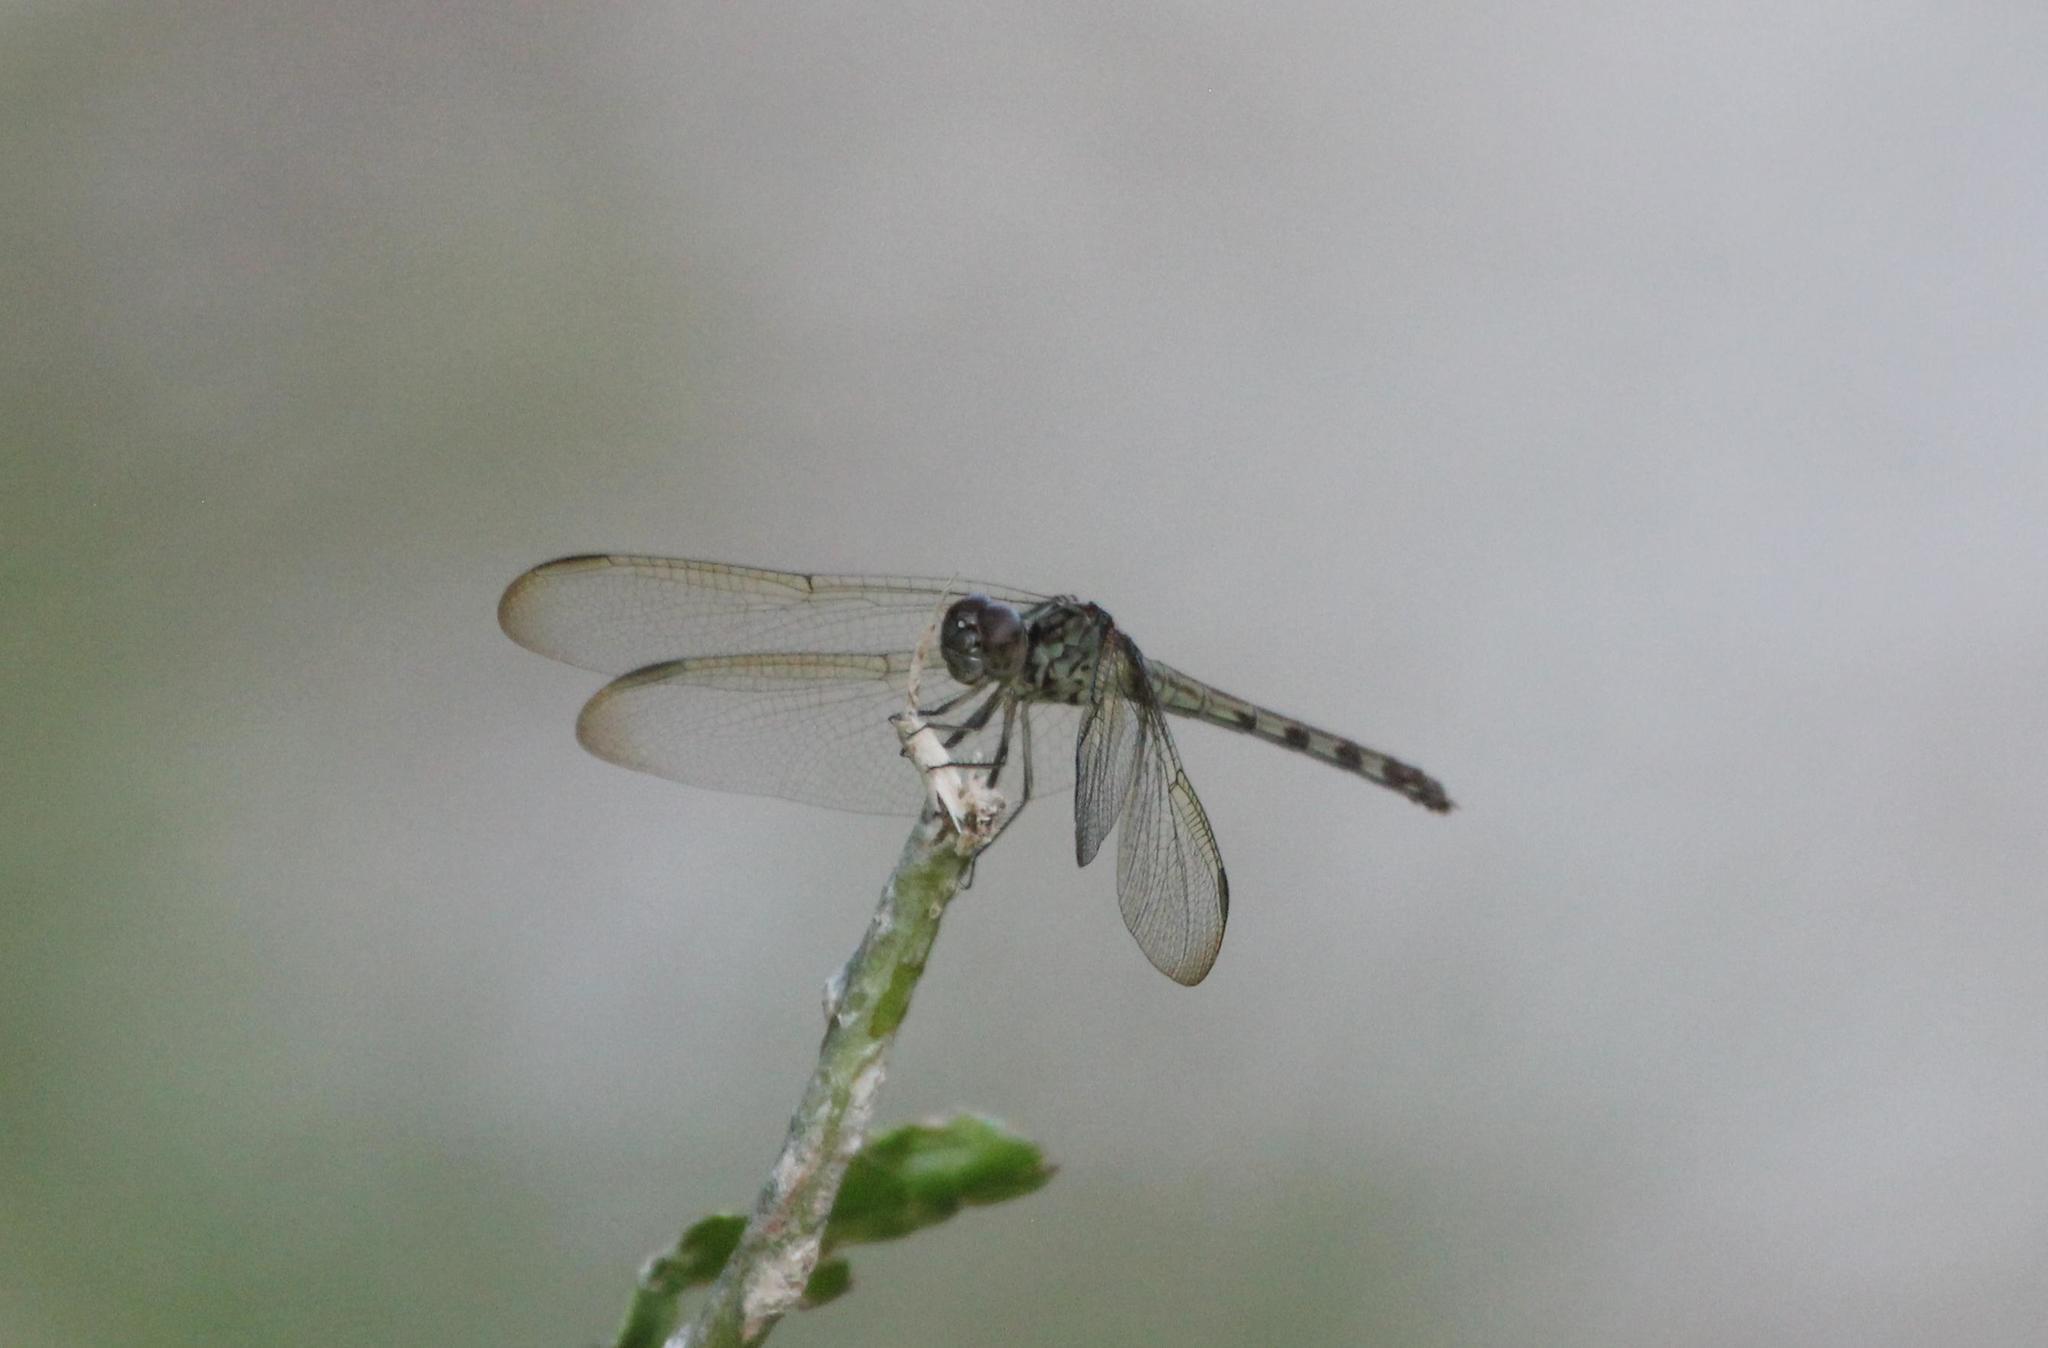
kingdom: Animalia
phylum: Arthropoda
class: Insecta
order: Odonata
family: Libellulidae
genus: Erythrodiplax
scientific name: Erythrodiplax umbrata
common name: Band-winged dragonlet
